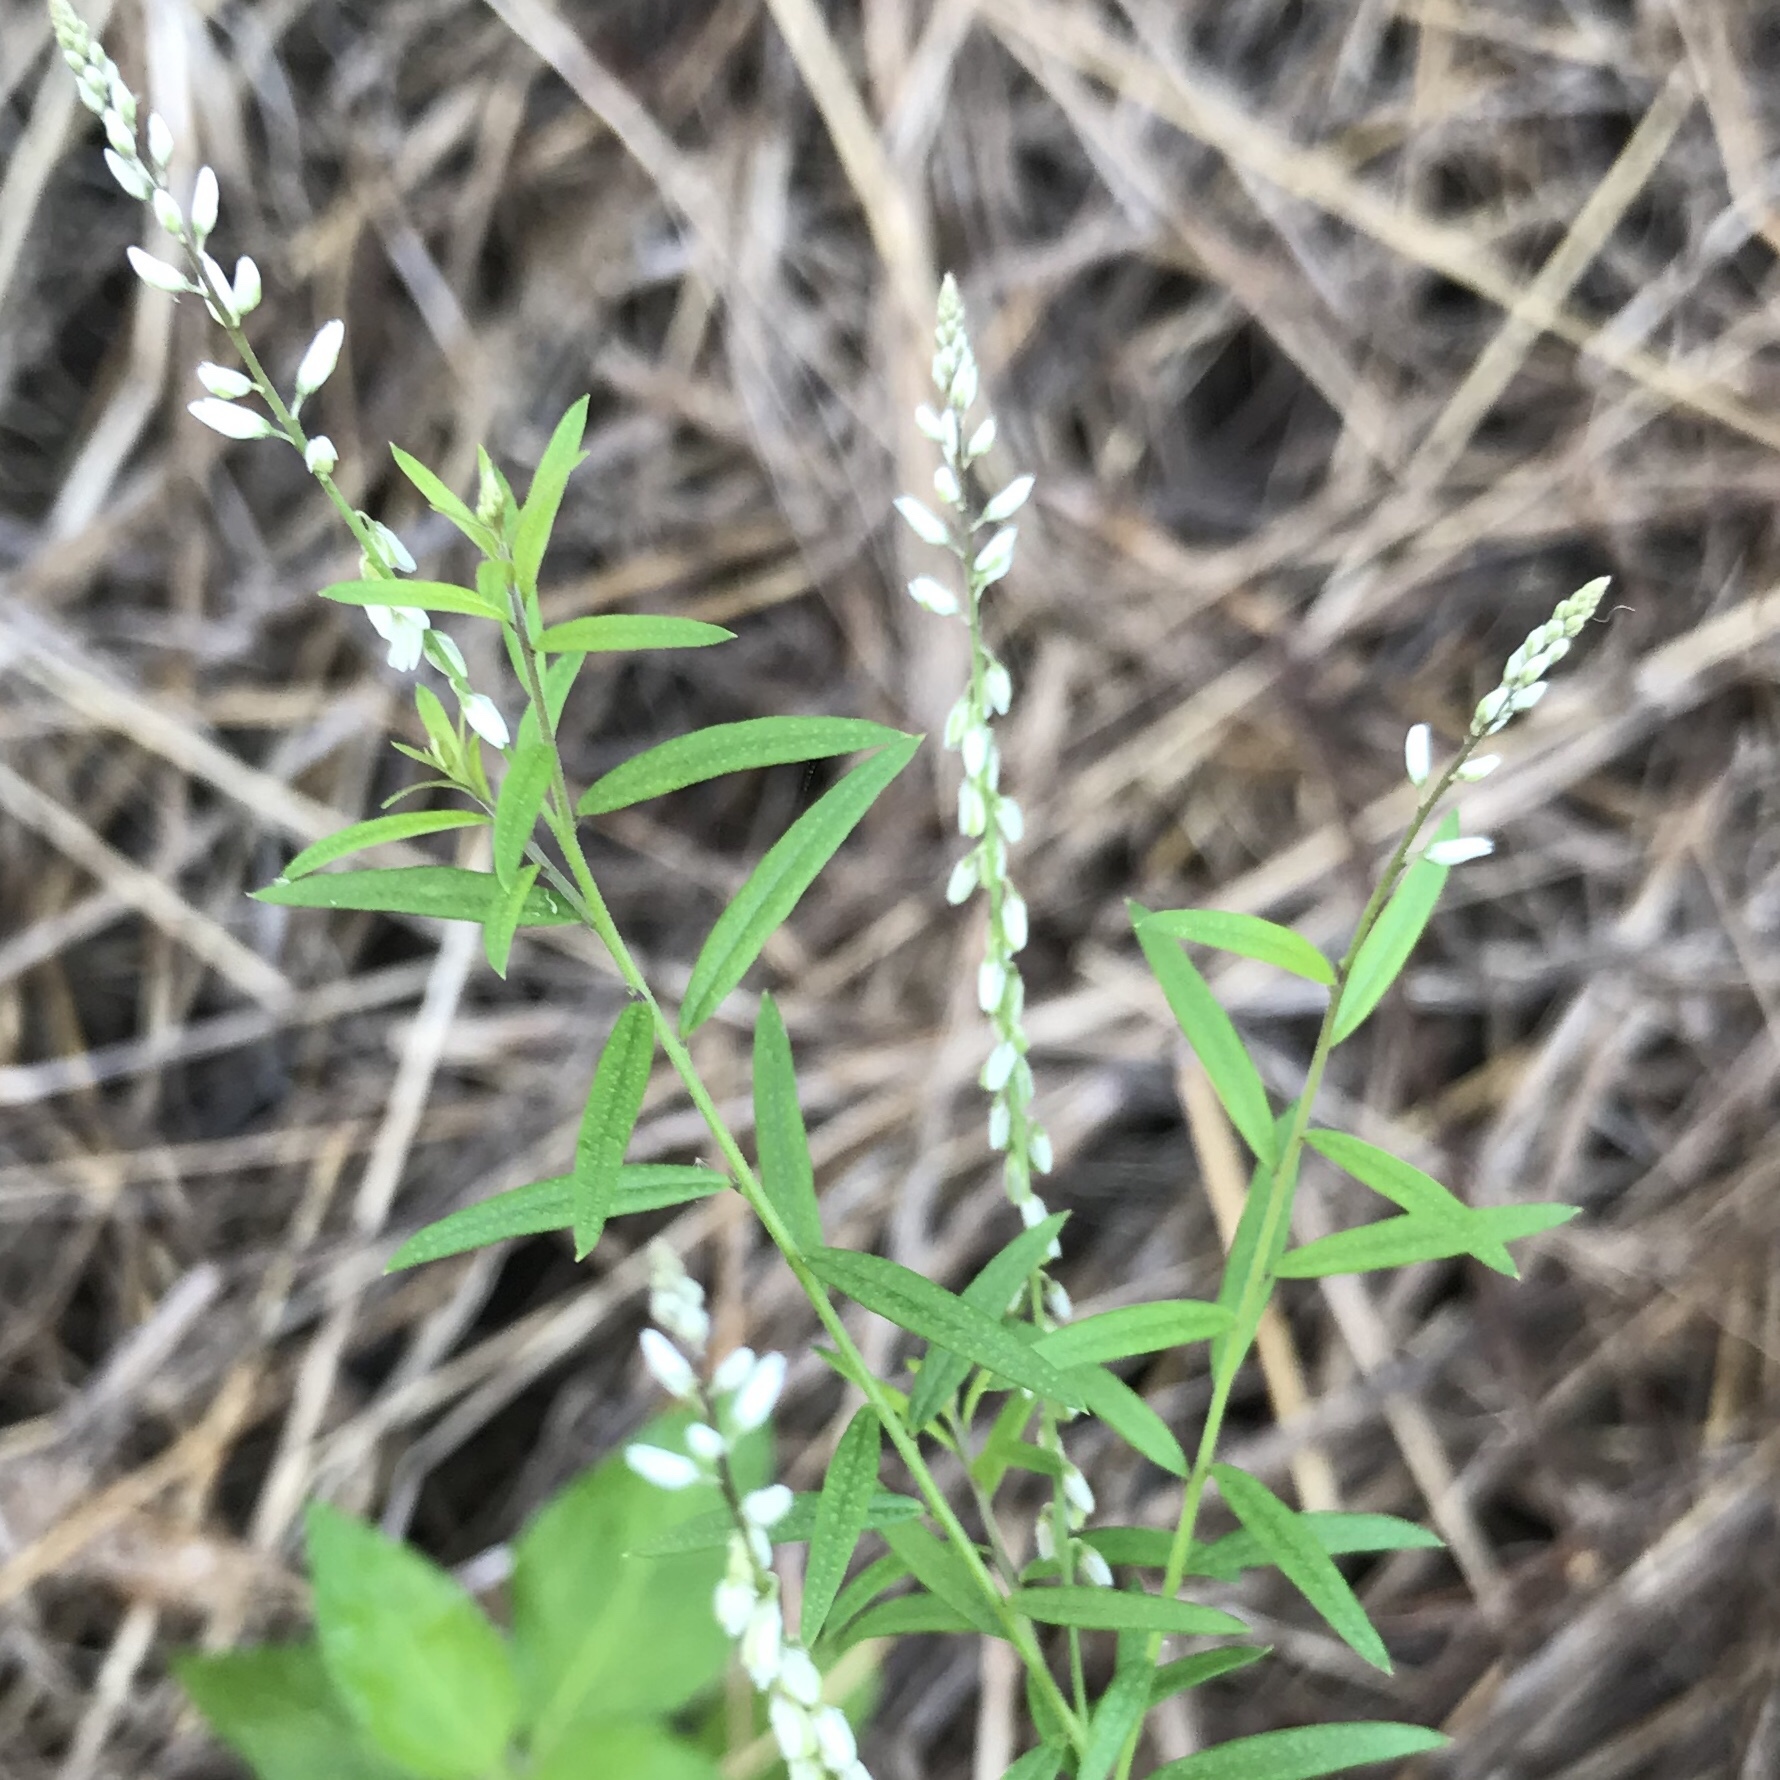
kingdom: Plantae
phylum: Tracheophyta
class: Magnoliopsida
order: Fabales
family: Polygalaceae
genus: Polygala
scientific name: Polygala paniculata
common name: Orosne
